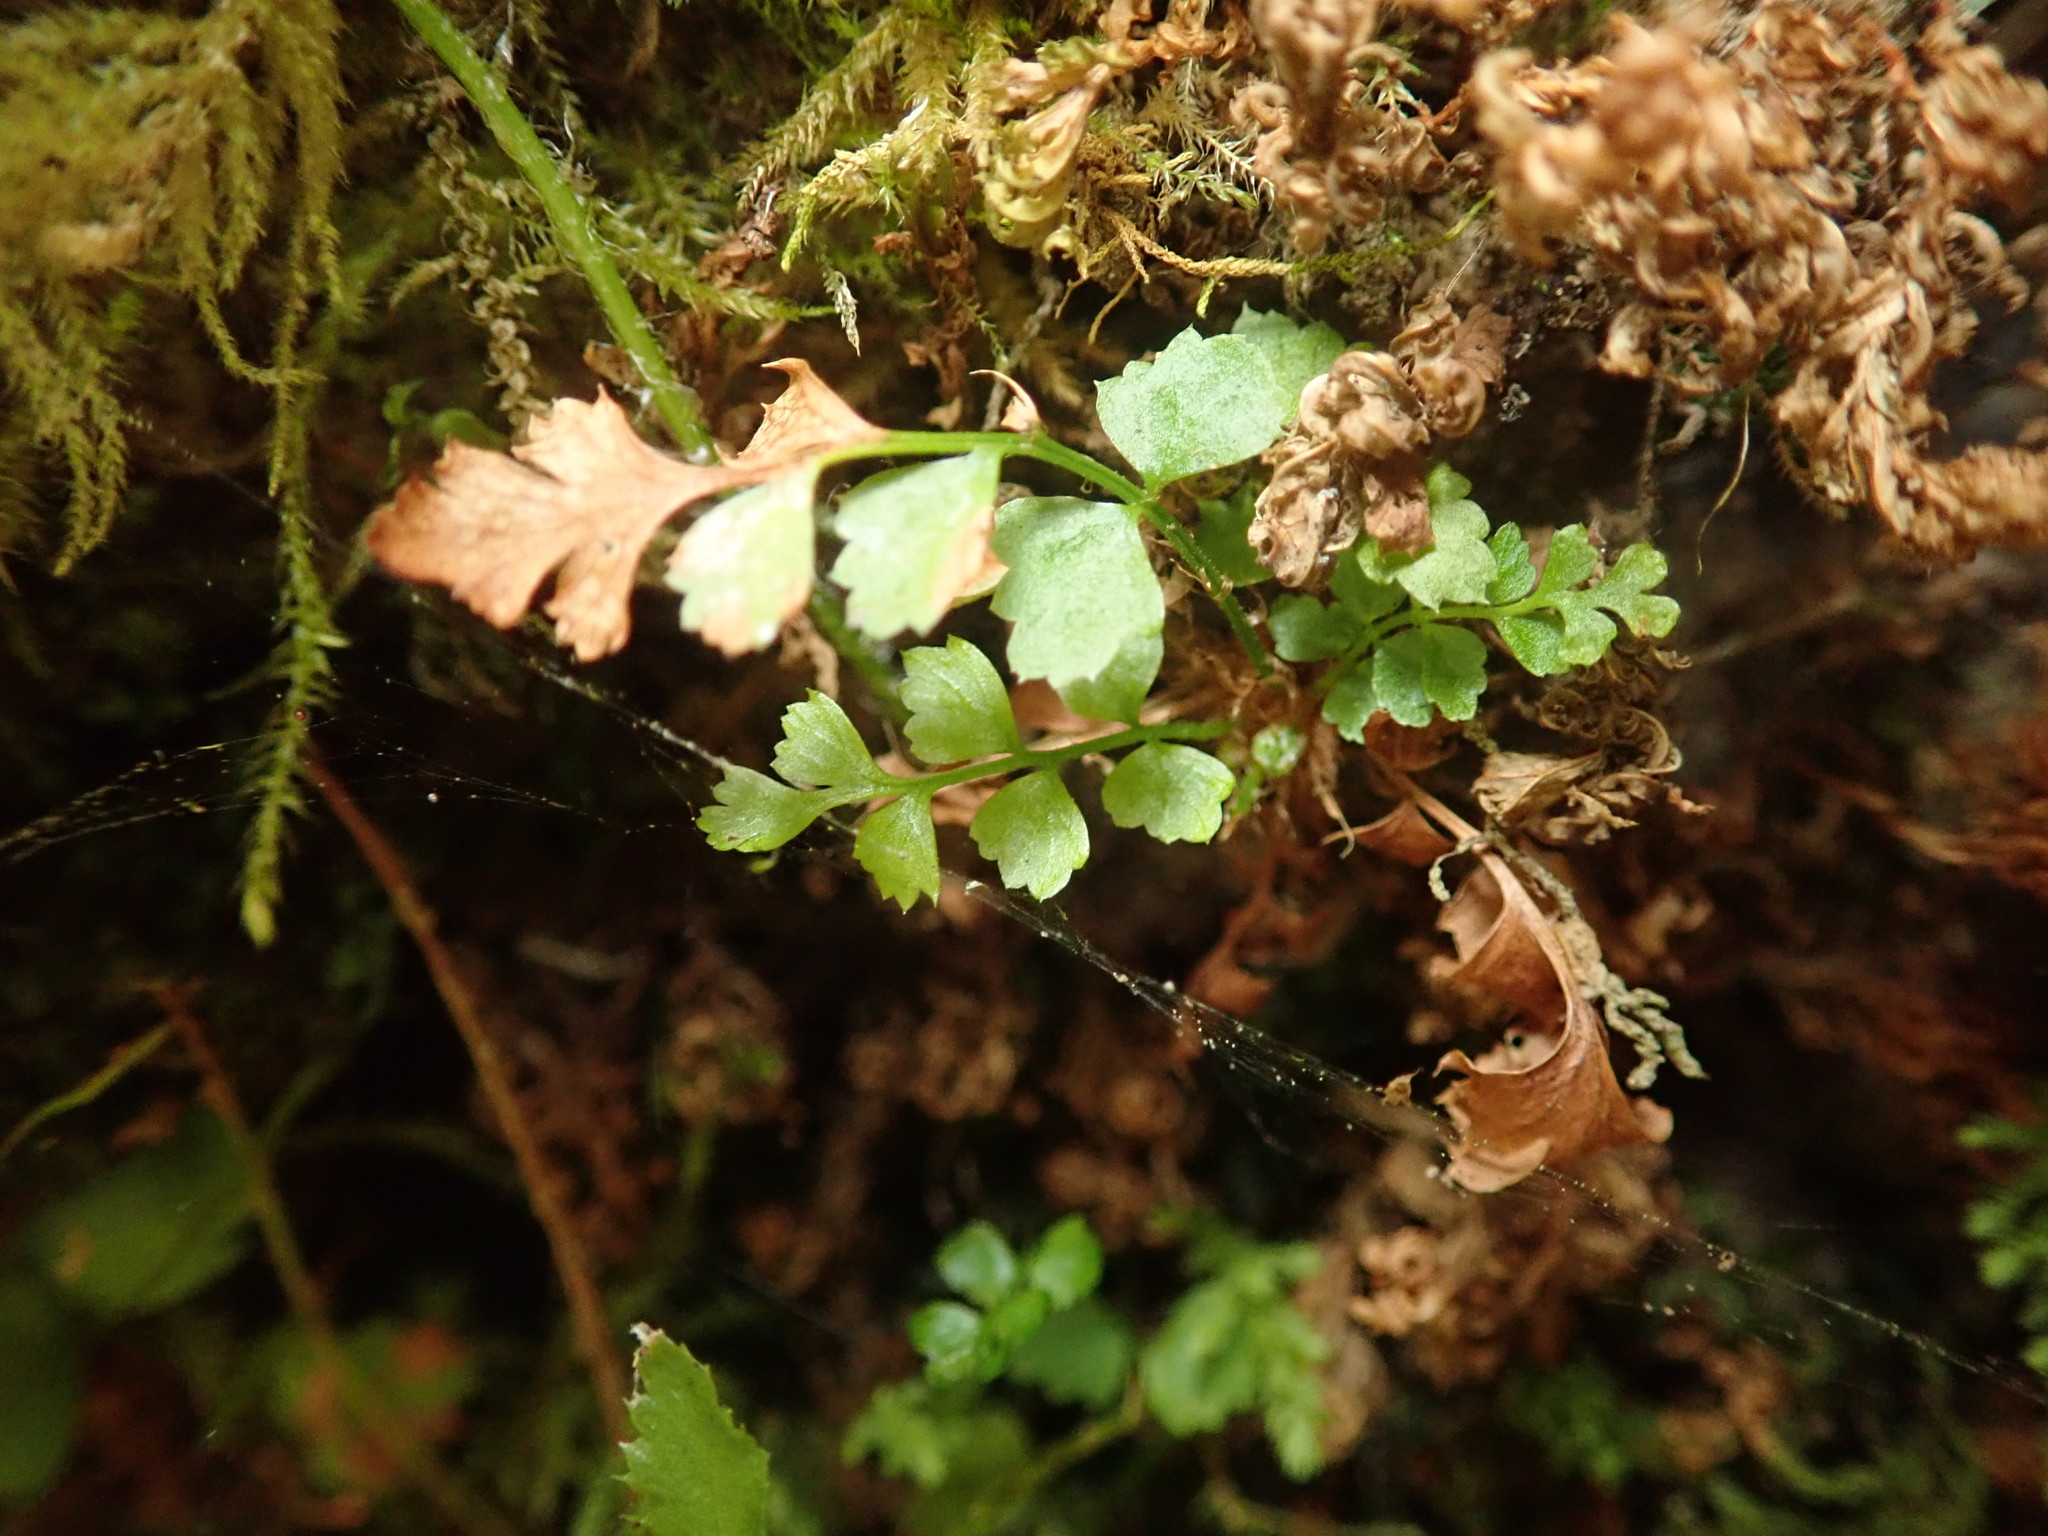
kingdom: Plantae
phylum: Tracheophyta
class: Polypodiopsida
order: Polypodiales
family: Dryopteridaceae
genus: Polystichum
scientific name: Polystichum munitum
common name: Western sword-fern
